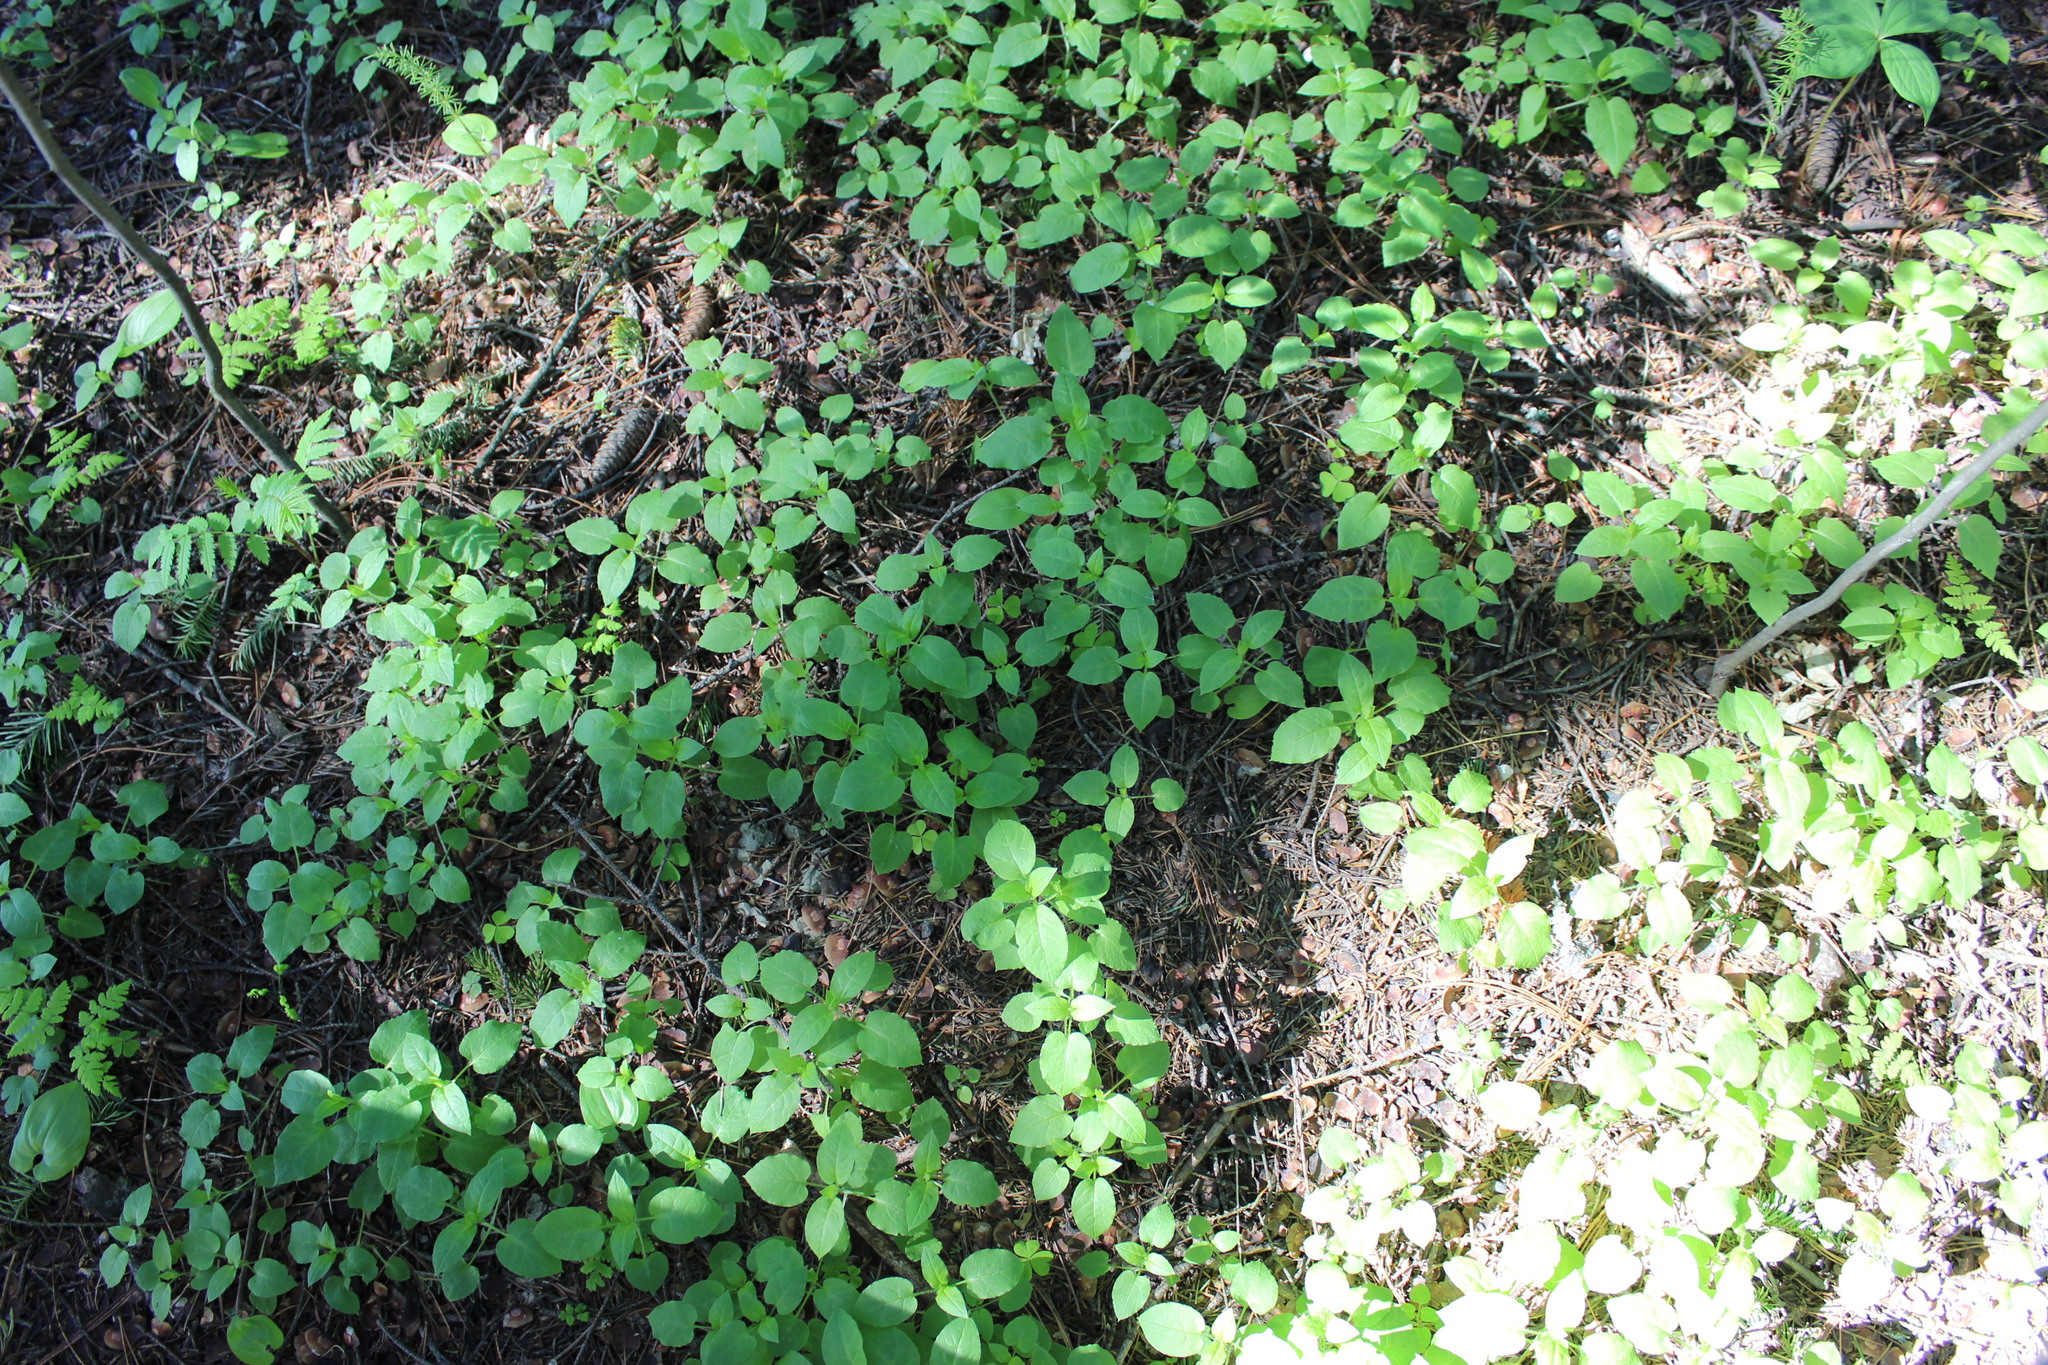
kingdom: Plantae
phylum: Tracheophyta
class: Magnoliopsida
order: Caryophyllales
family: Caryophyllaceae
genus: Stellaria
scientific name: Stellaria bungeana
